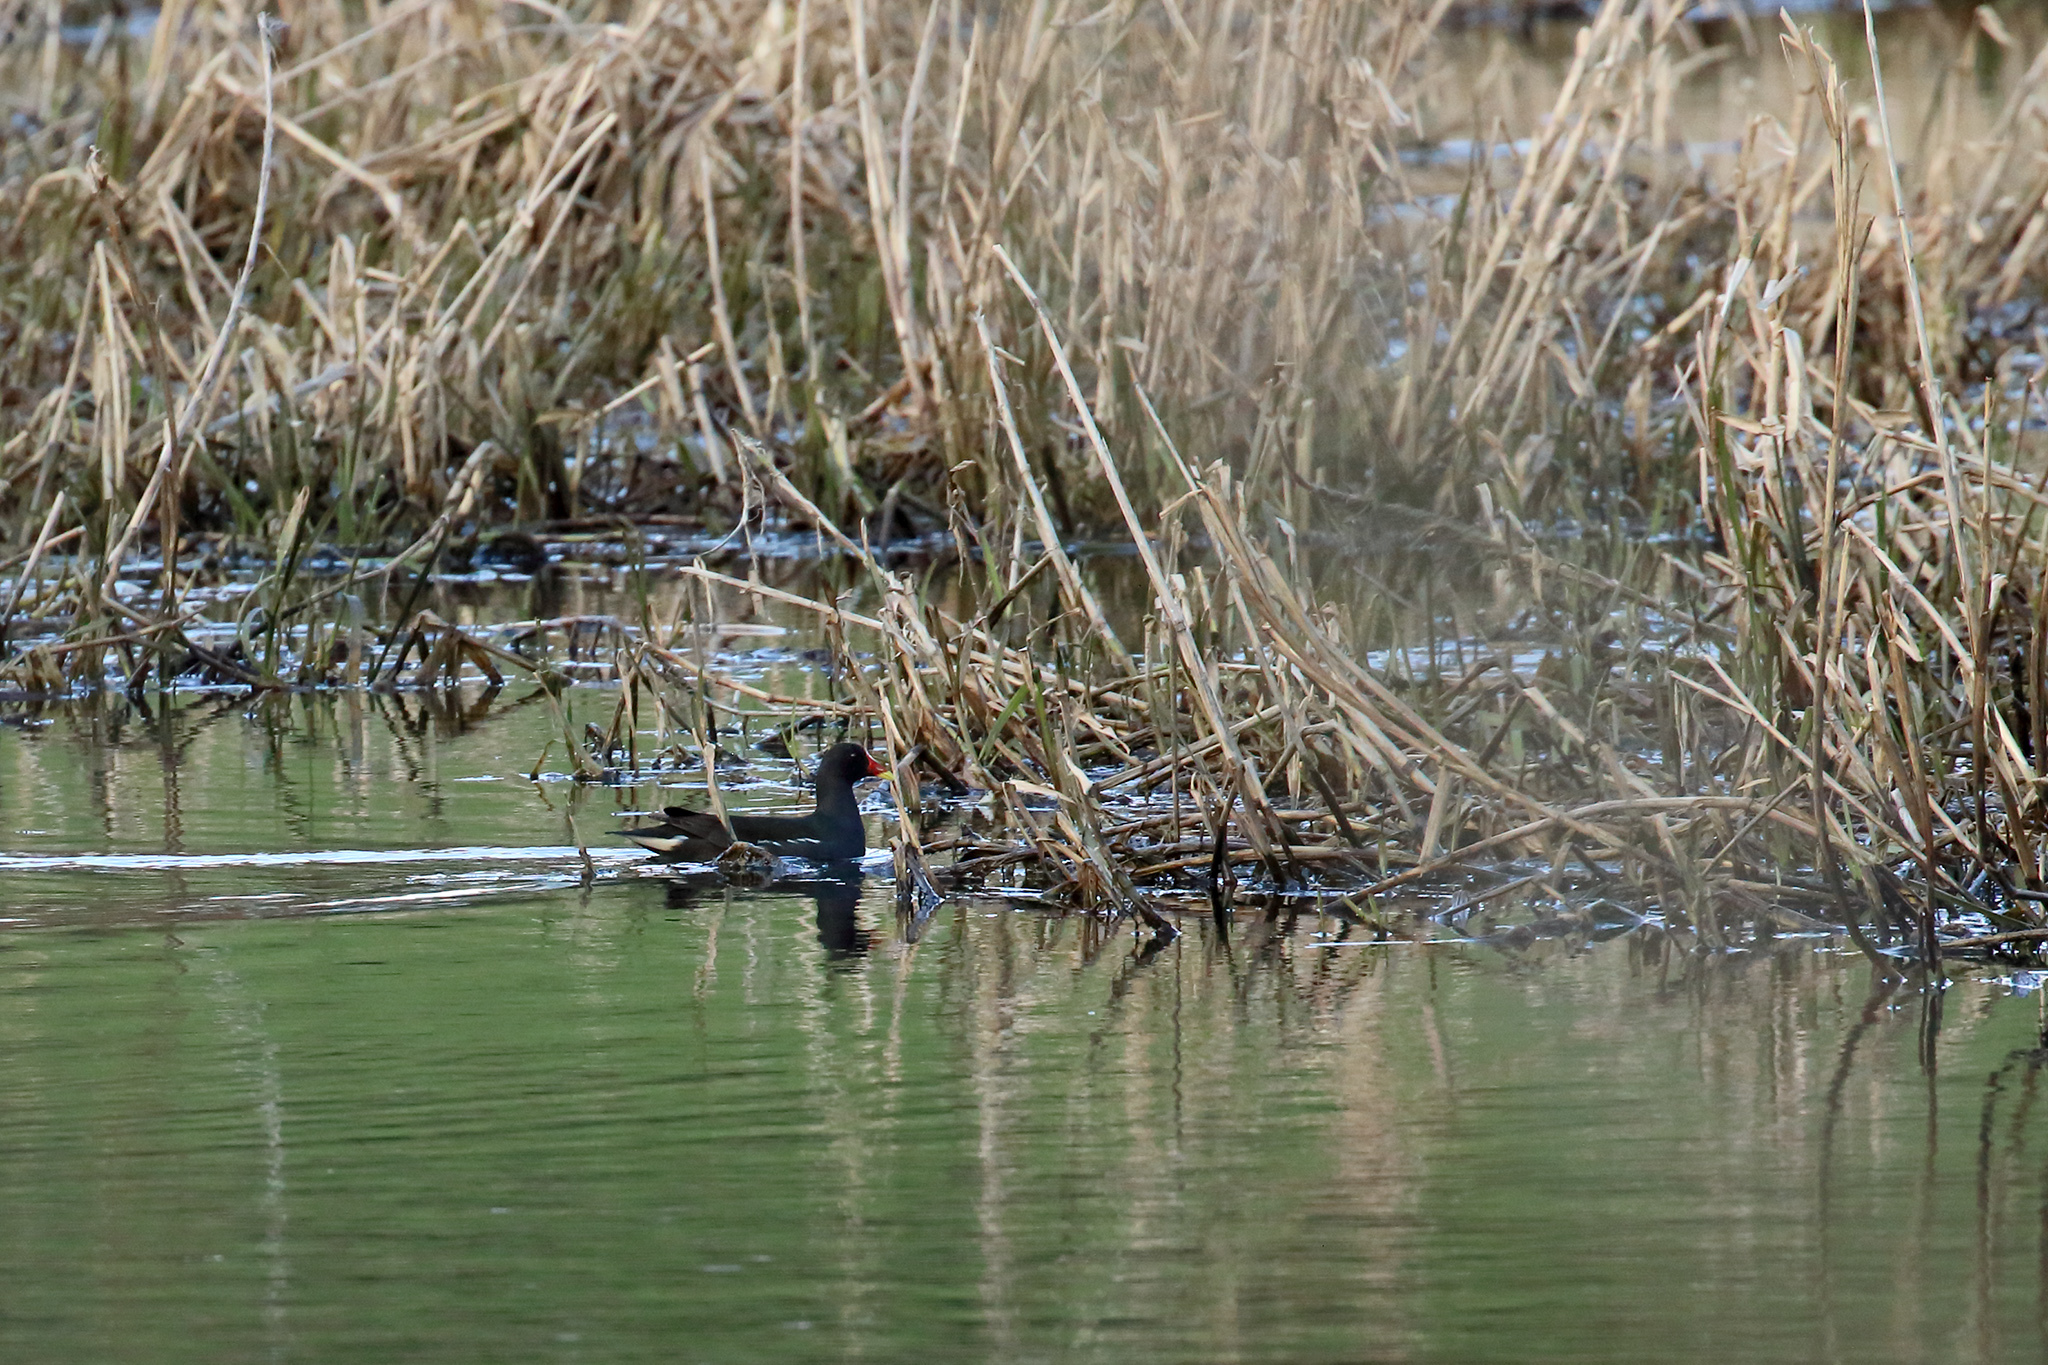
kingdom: Animalia
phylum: Chordata
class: Aves
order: Gruiformes
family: Rallidae
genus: Gallinula
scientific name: Gallinula chloropus
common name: Common moorhen
